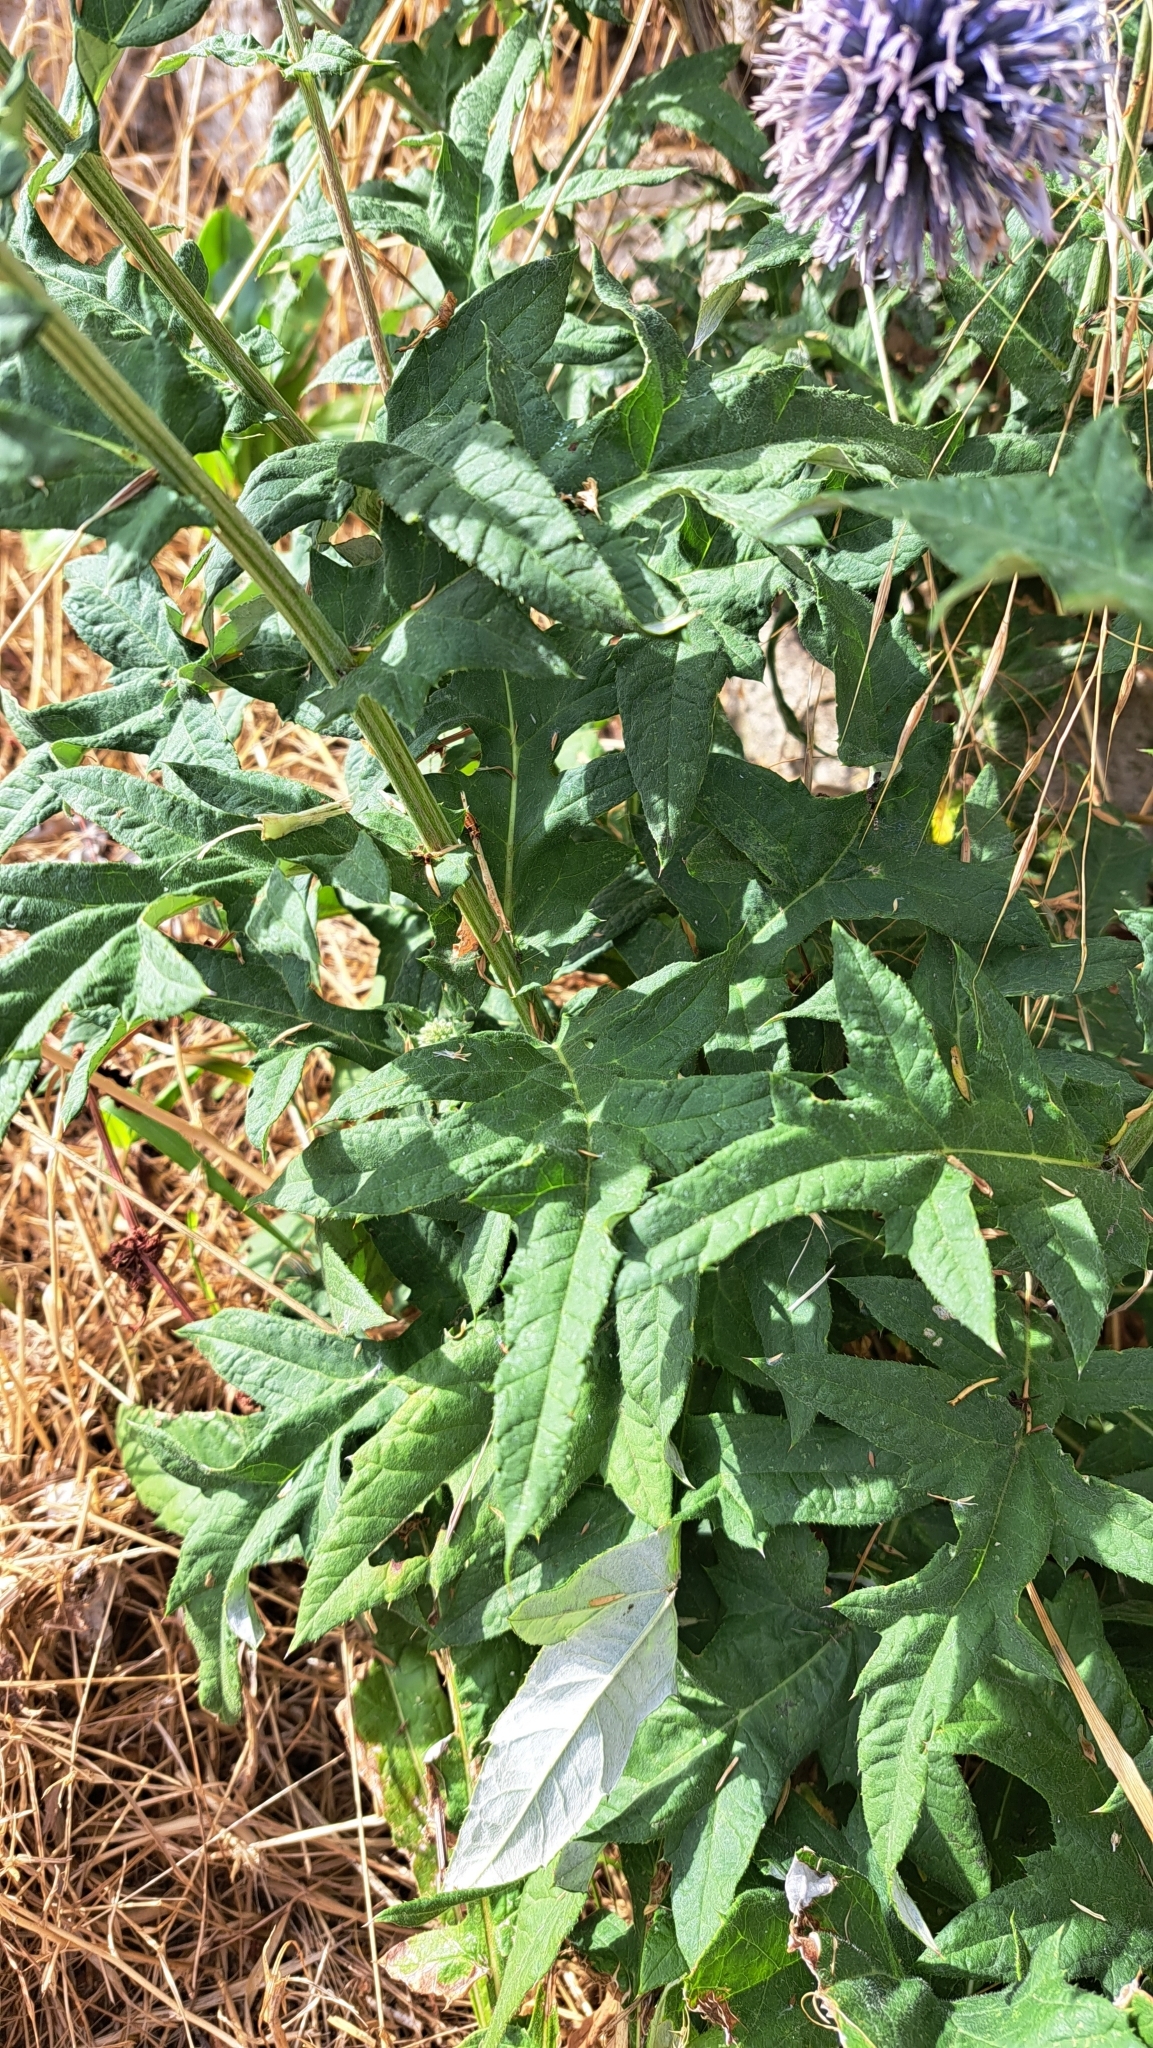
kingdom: Plantae
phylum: Tracheophyta
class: Magnoliopsida
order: Asterales
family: Asteraceae
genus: Echinops
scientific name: Echinops ritro
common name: Globe thistle
